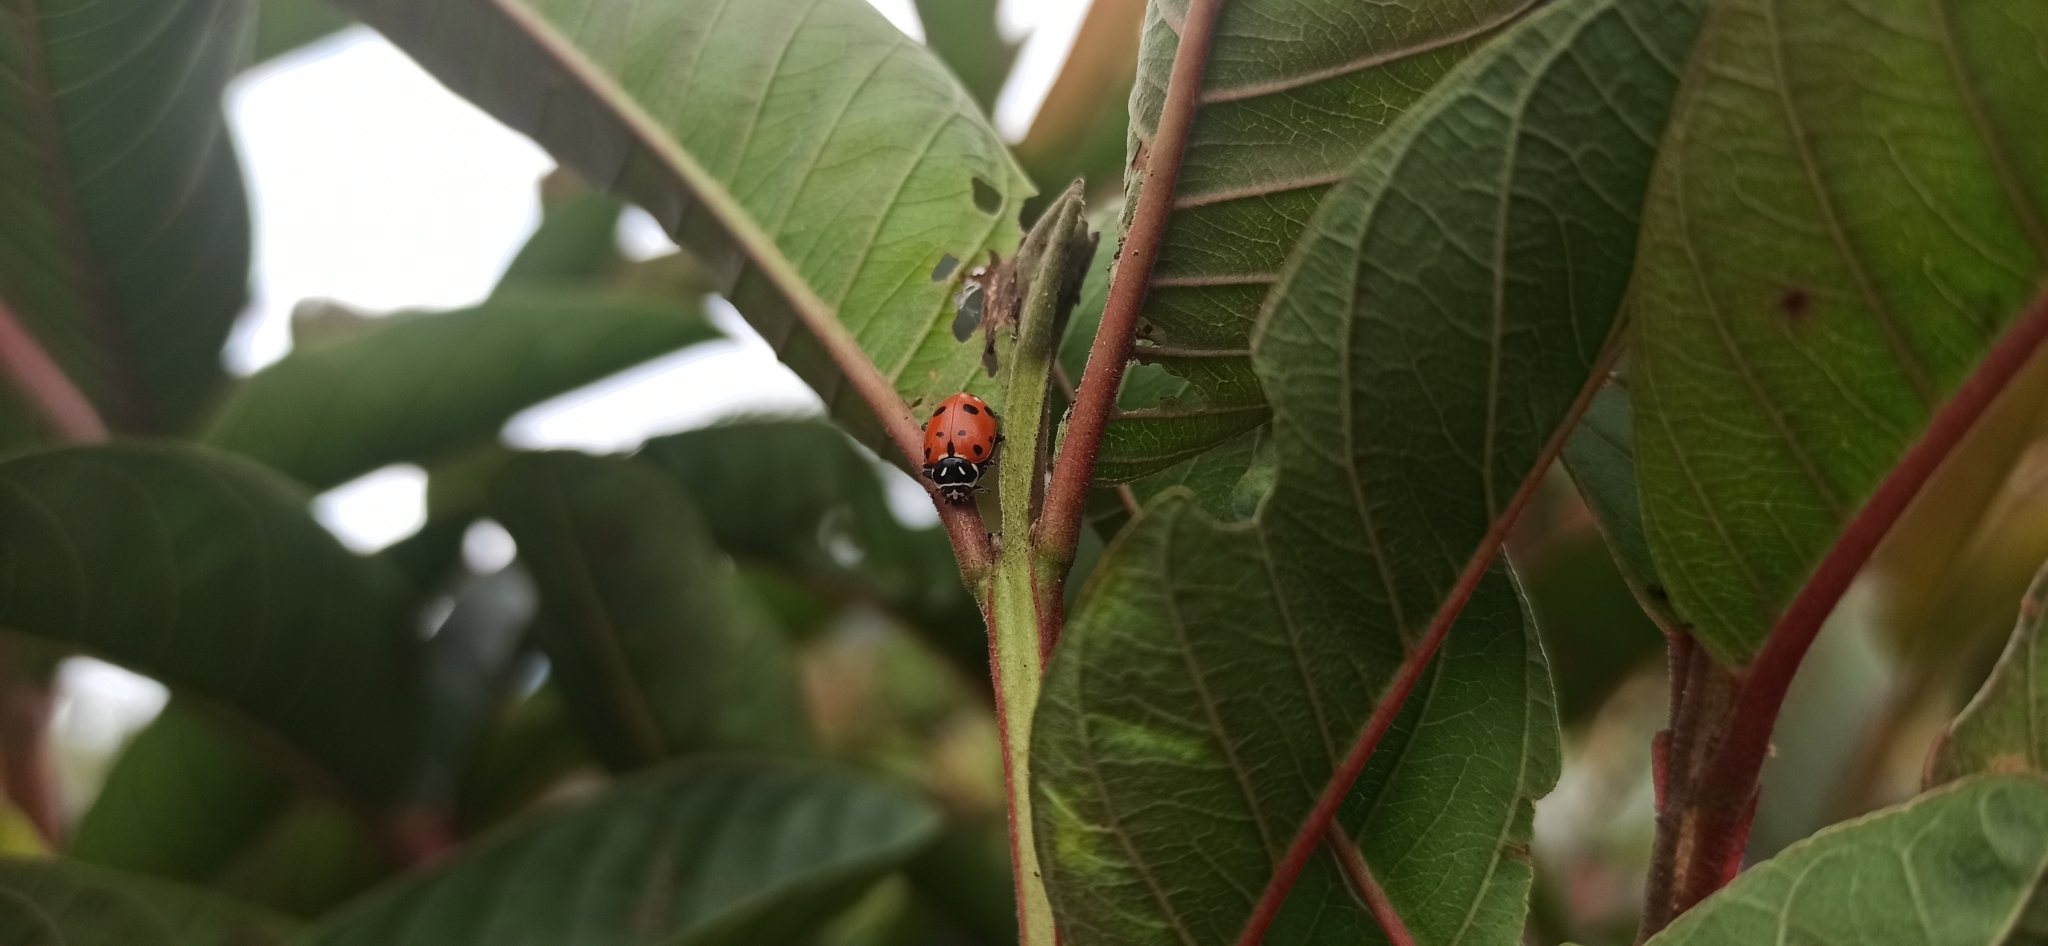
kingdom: Animalia
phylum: Arthropoda
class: Insecta
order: Coleoptera
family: Coccinellidae
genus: Hippodamia
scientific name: Hippodamia convergens
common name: Convergent lady beetle
